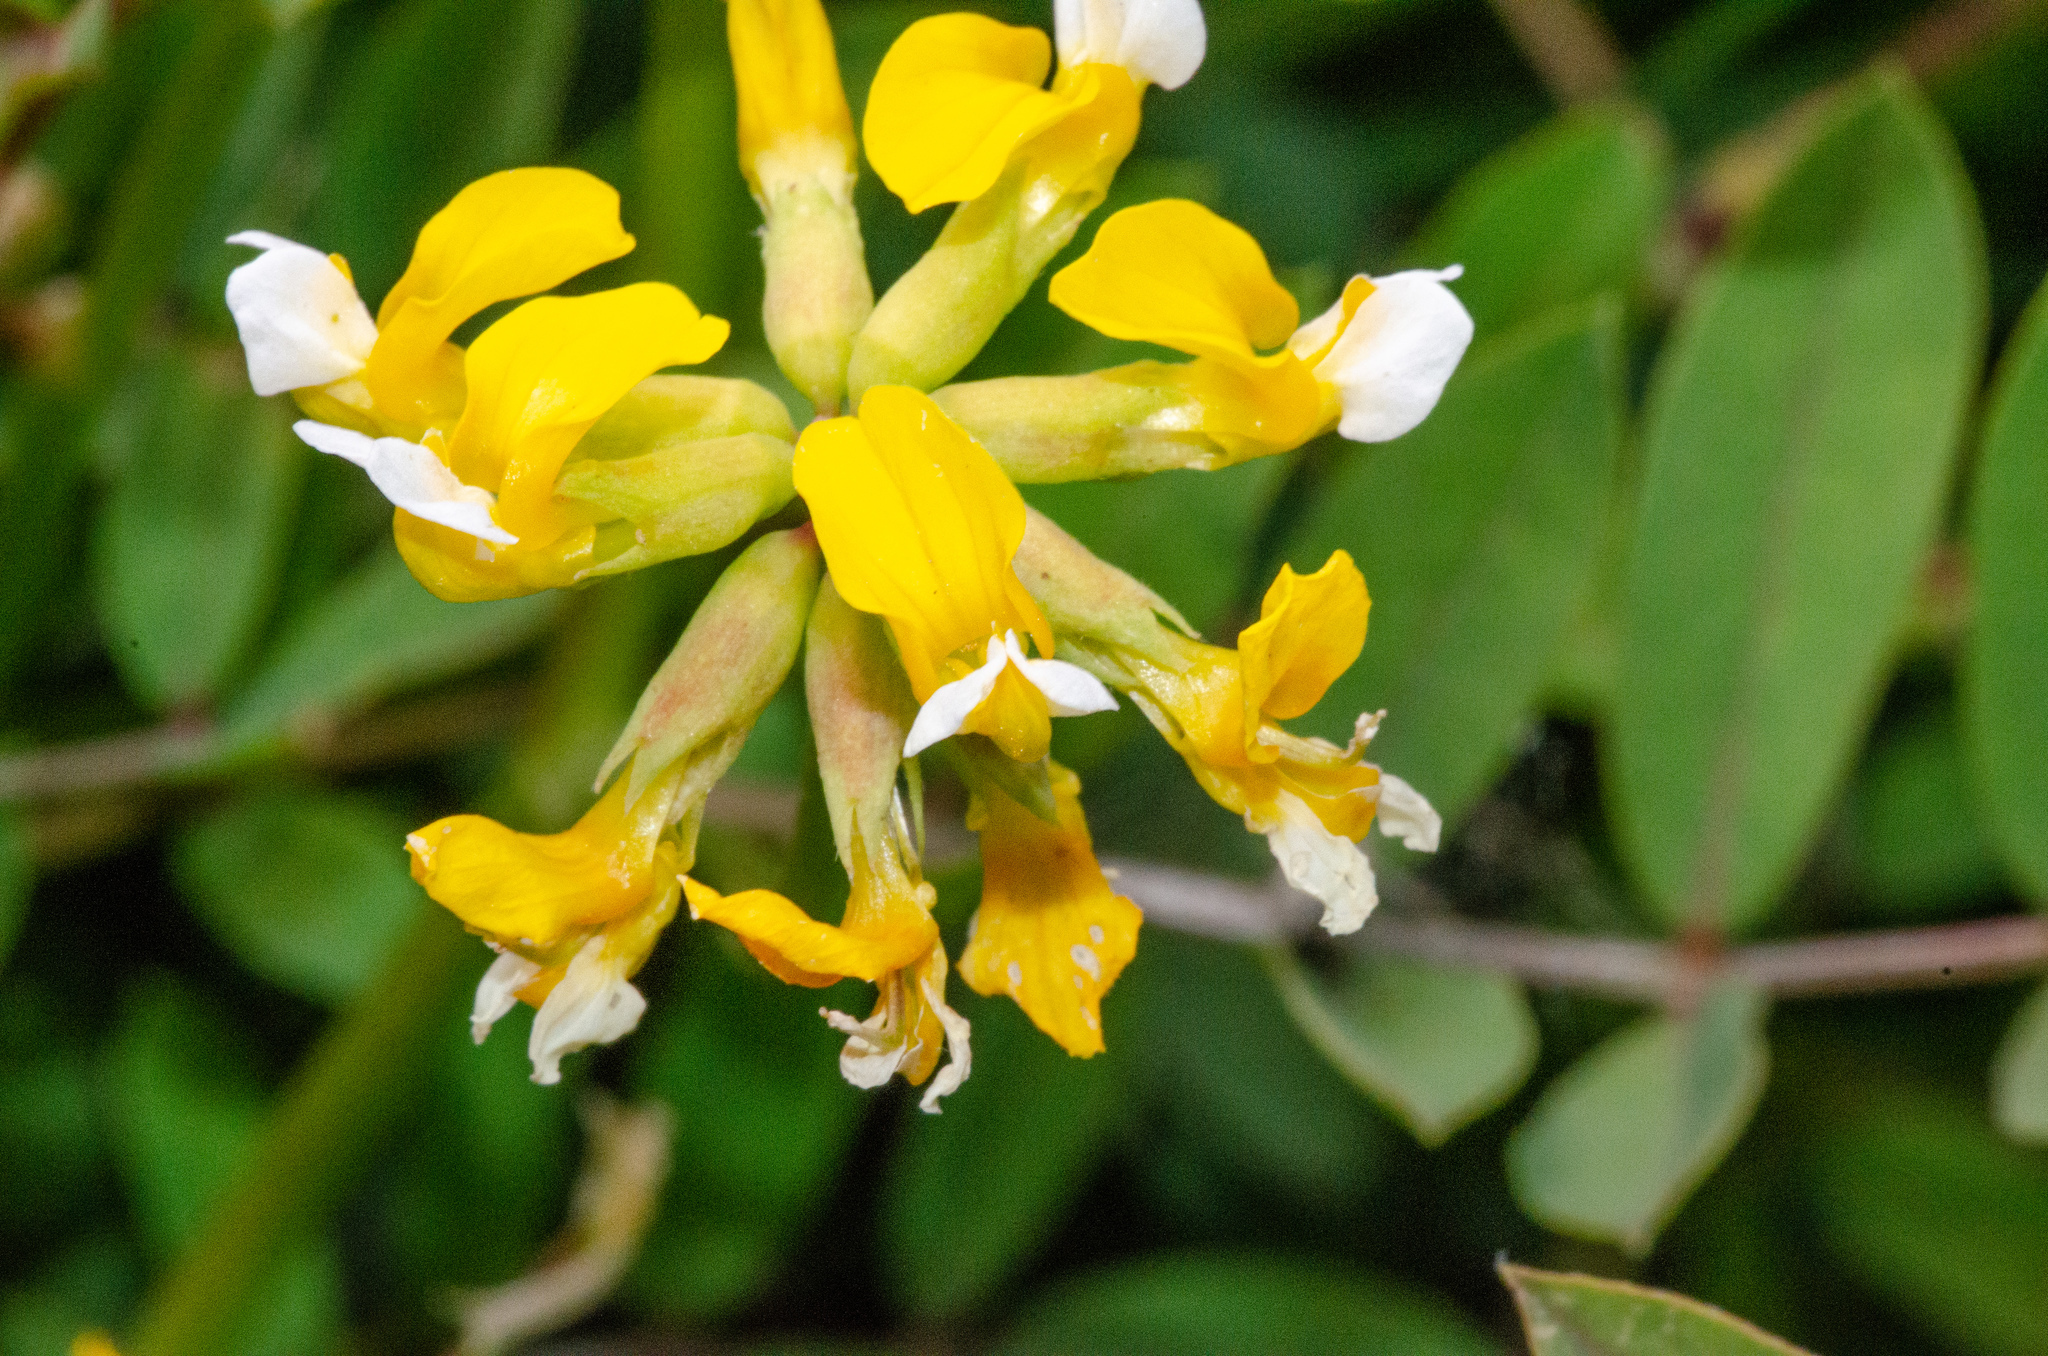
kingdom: Plantae
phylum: Tracheophyta
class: Magnoliopsida
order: Fabales
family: Fabaceae
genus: Hosackia
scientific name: Hosackia pinnata
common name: Bog bird's-foot trefoil
